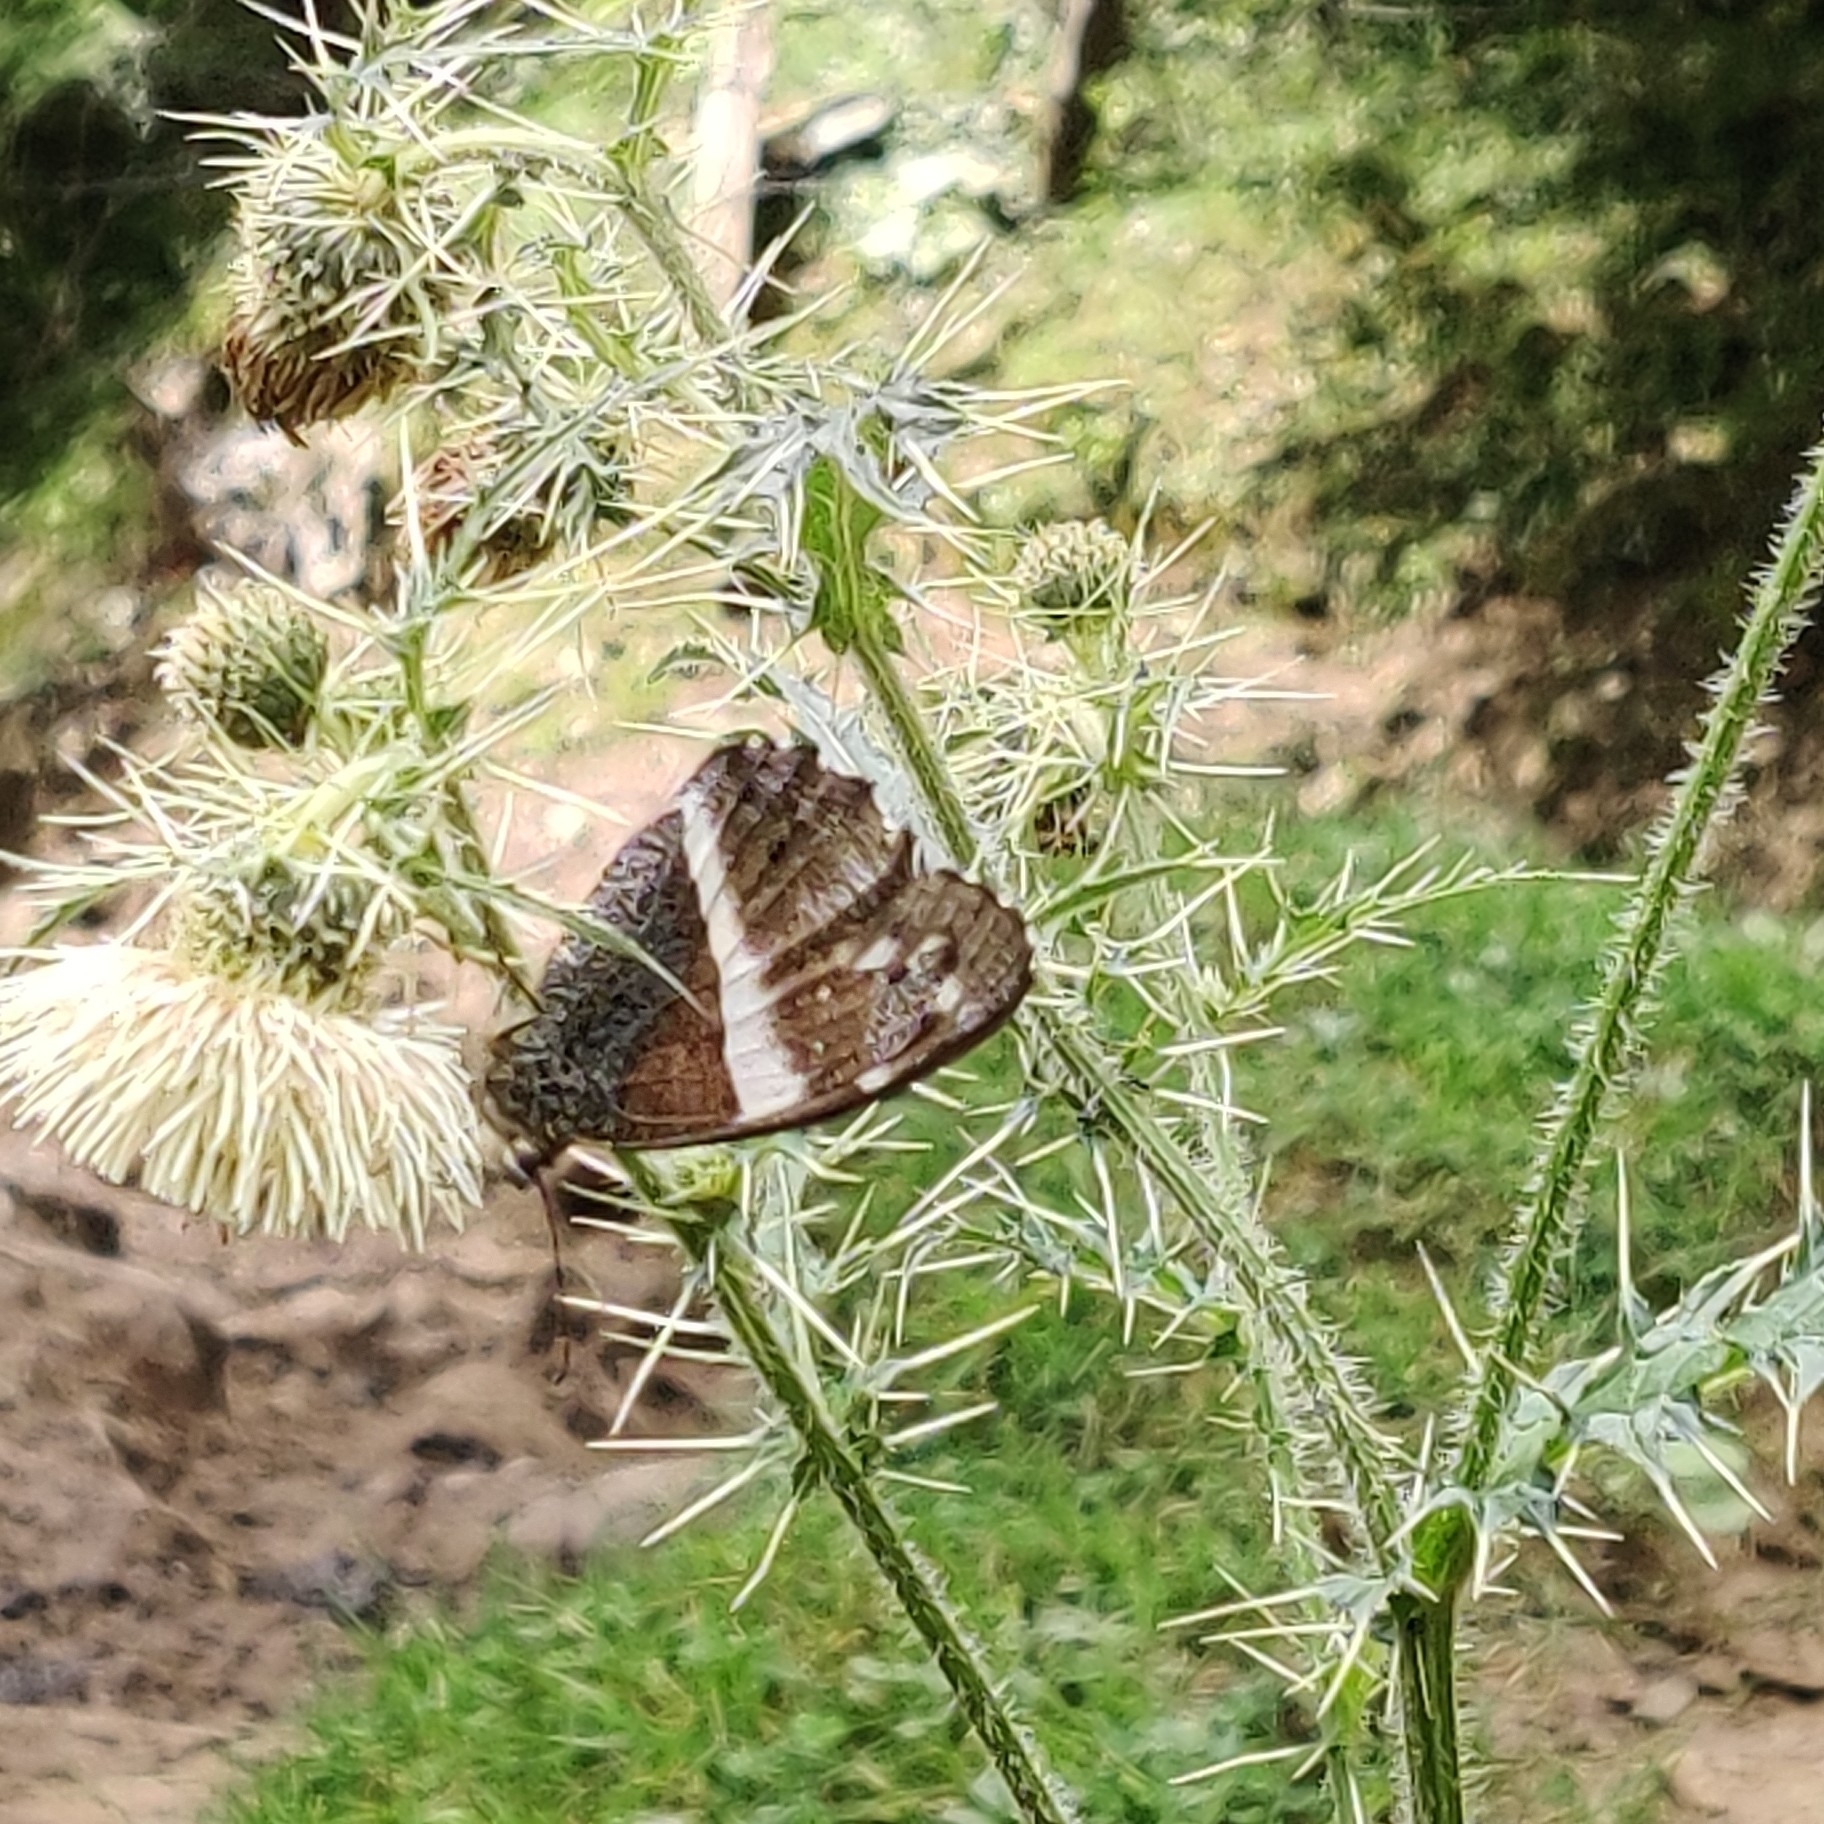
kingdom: Animalia
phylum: Arthropoda
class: Insecta
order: Lepidoptera
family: Nymphalidae
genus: Satyrus
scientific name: Satyrus
